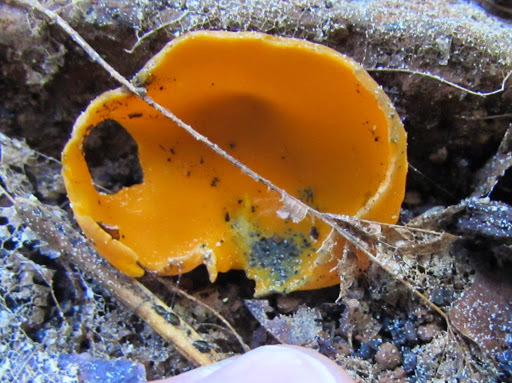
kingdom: Fungi
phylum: Ascomycota
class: Pezizomycetes
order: Pezizales
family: Caloscyphaceae
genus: Caloscypha
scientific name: Caloscypha fulgens
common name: Golden cup
